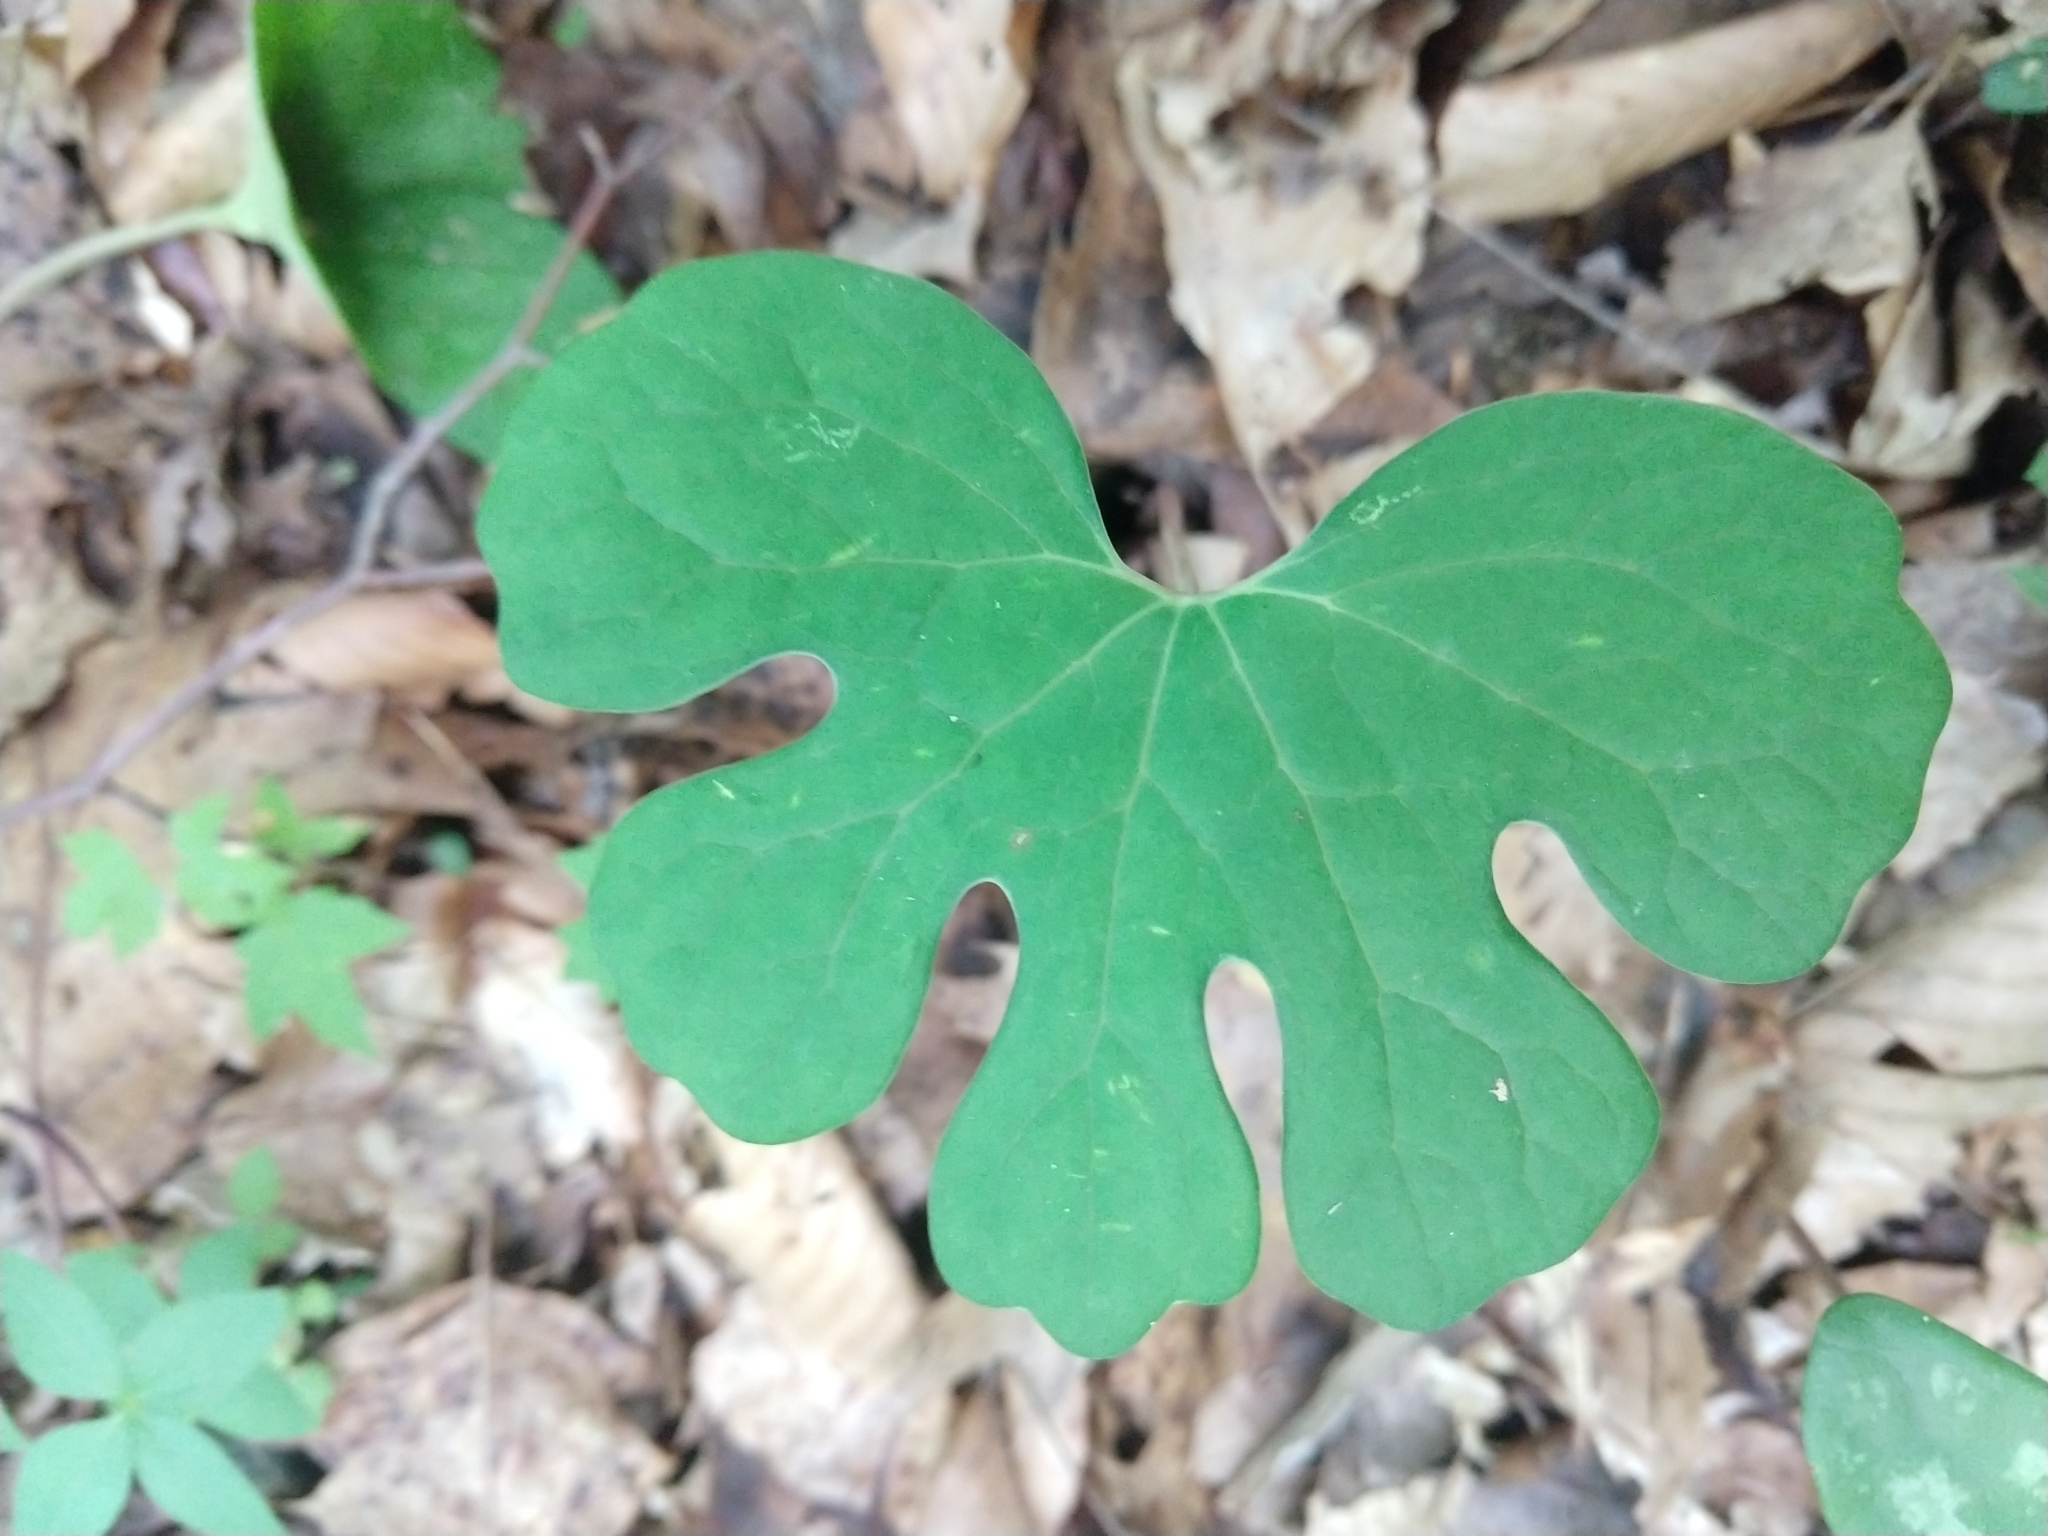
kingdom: Plantae
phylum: Tracheophyta
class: Magnoliopsida
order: Ranunculales
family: Papaveraceae
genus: Sanguinaria
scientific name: Sanguinaria canadensis
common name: Bloodroot
